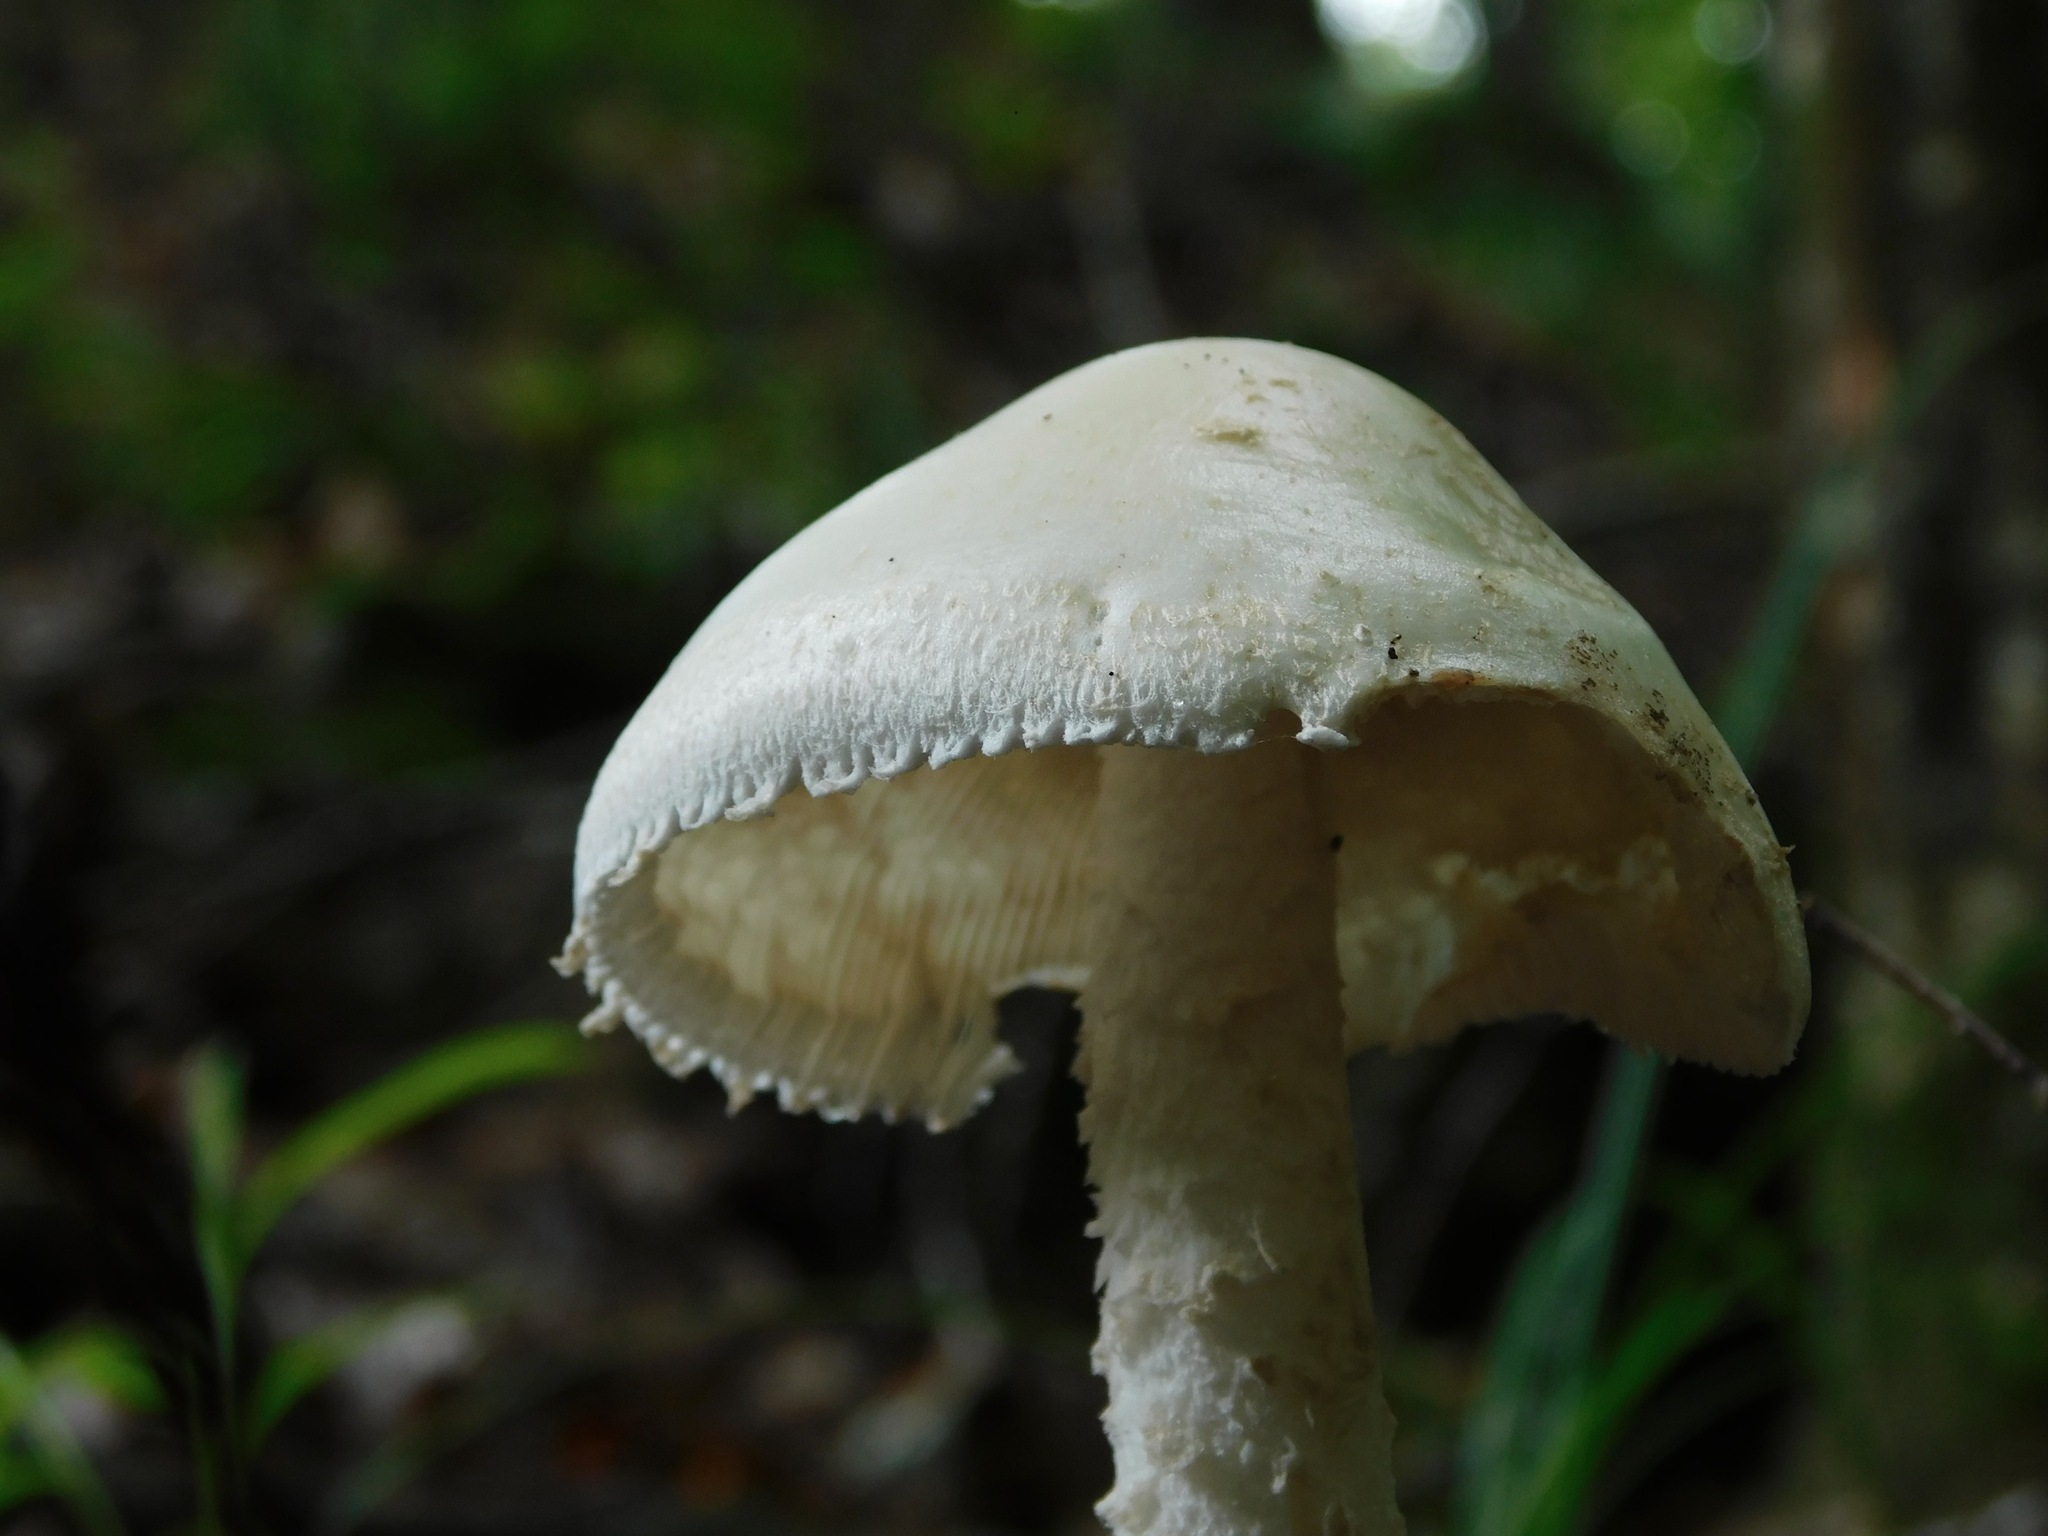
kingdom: Fungi
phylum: Basidiomycota
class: Agaricomycetes
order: Agaricales
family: Amanitaceae
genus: Amanita
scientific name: Amanita elliptosperma
